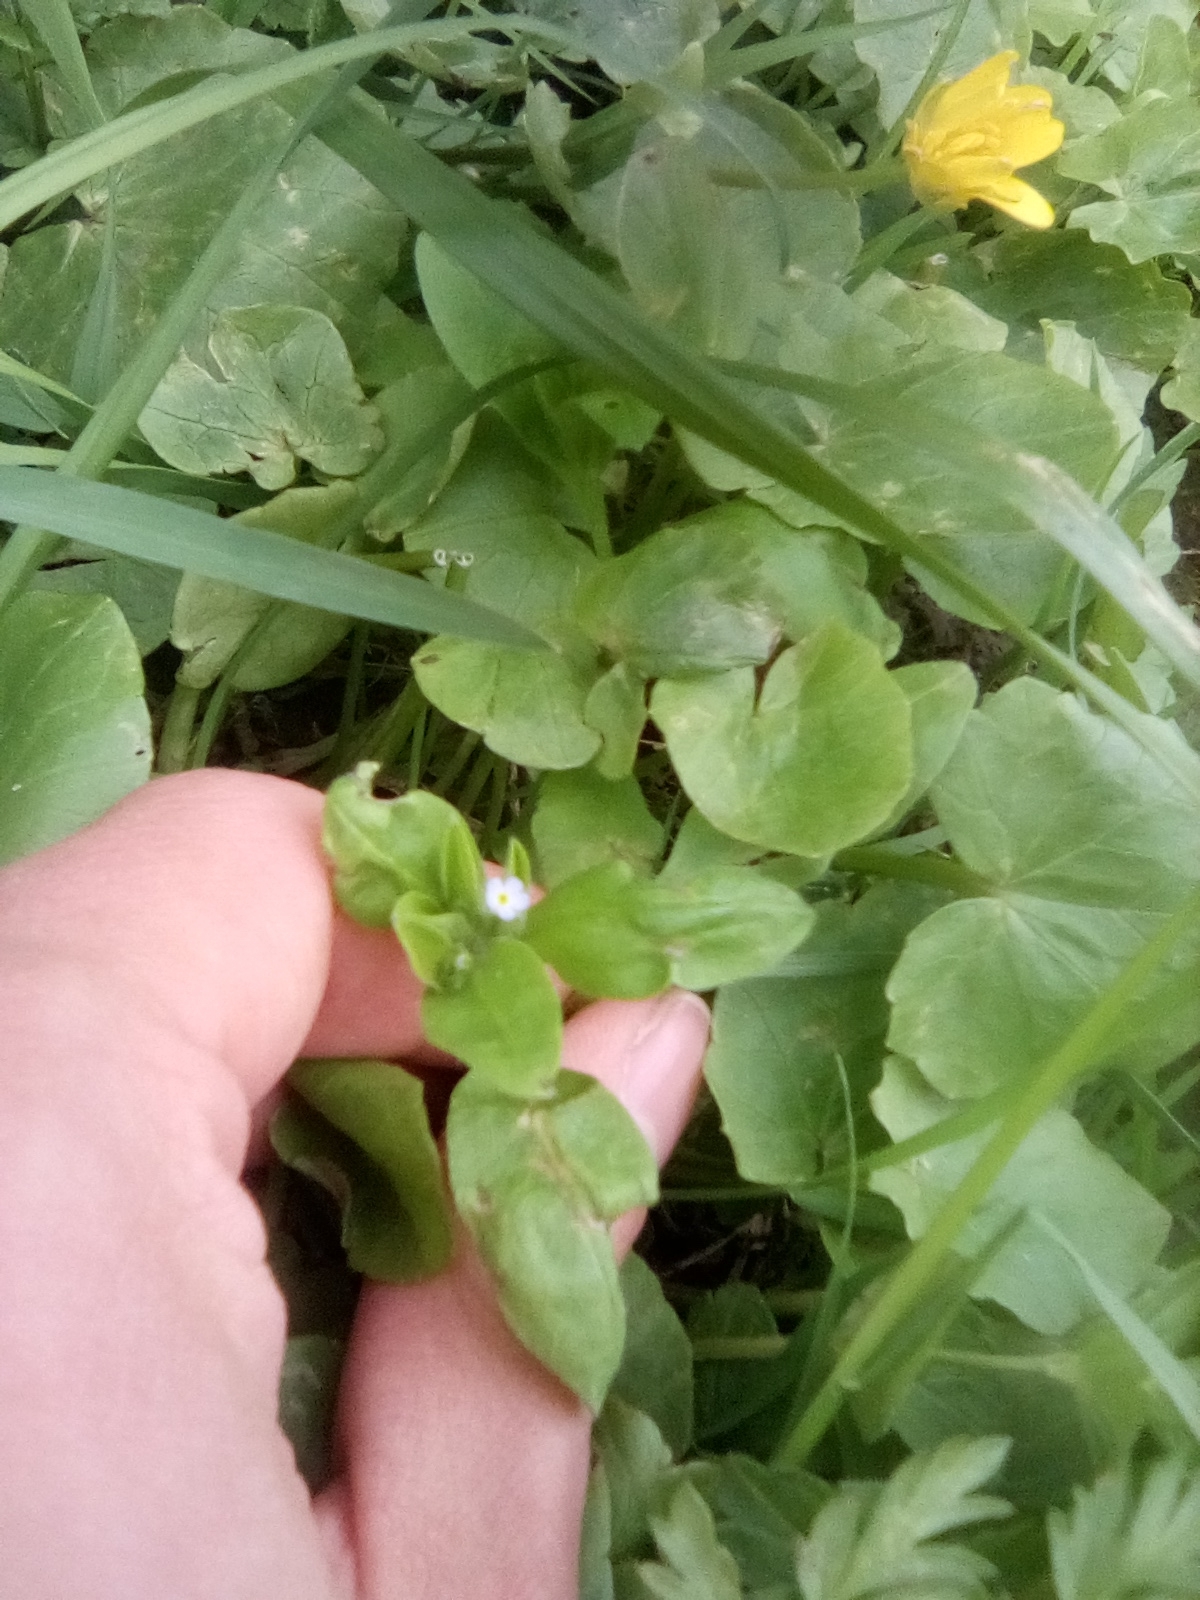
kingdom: Plantae
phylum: Tracheophyta
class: Magnoliopsida
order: Boraginales
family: Boraginaceae
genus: Myosotis
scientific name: Myosotis sparsiflora
